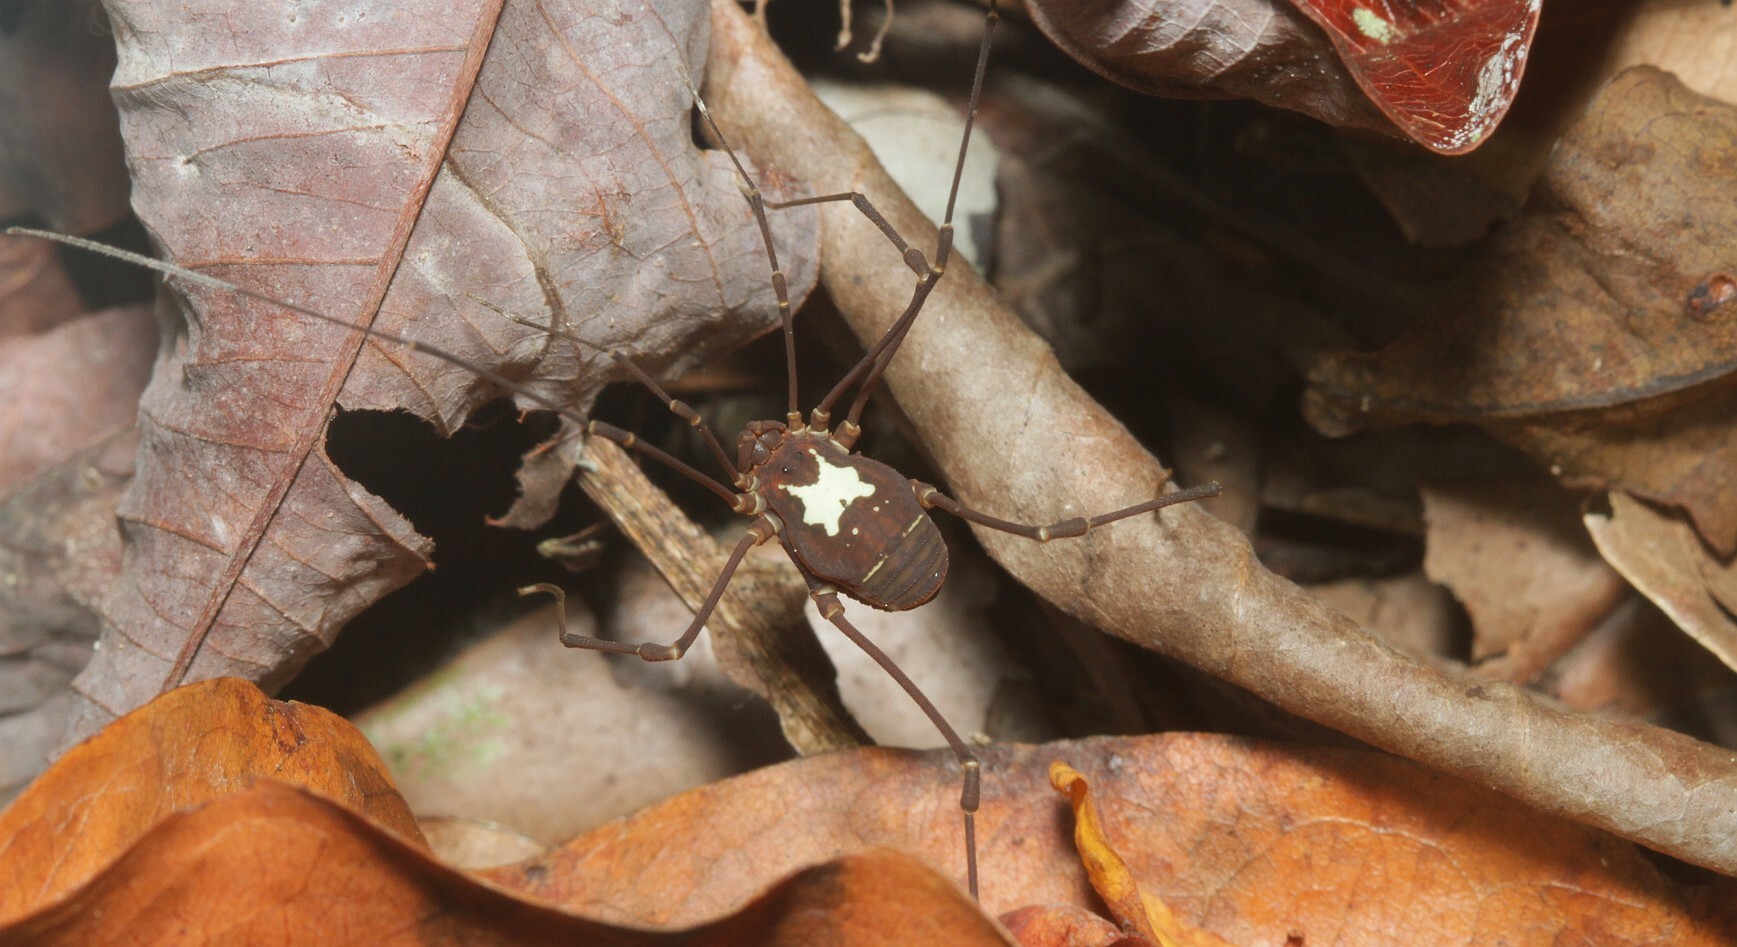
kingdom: Animalia
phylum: Arthropoda
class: Arachnida
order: Opiliones
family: Cosmetidae
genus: Vononana
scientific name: Vononana adrik
